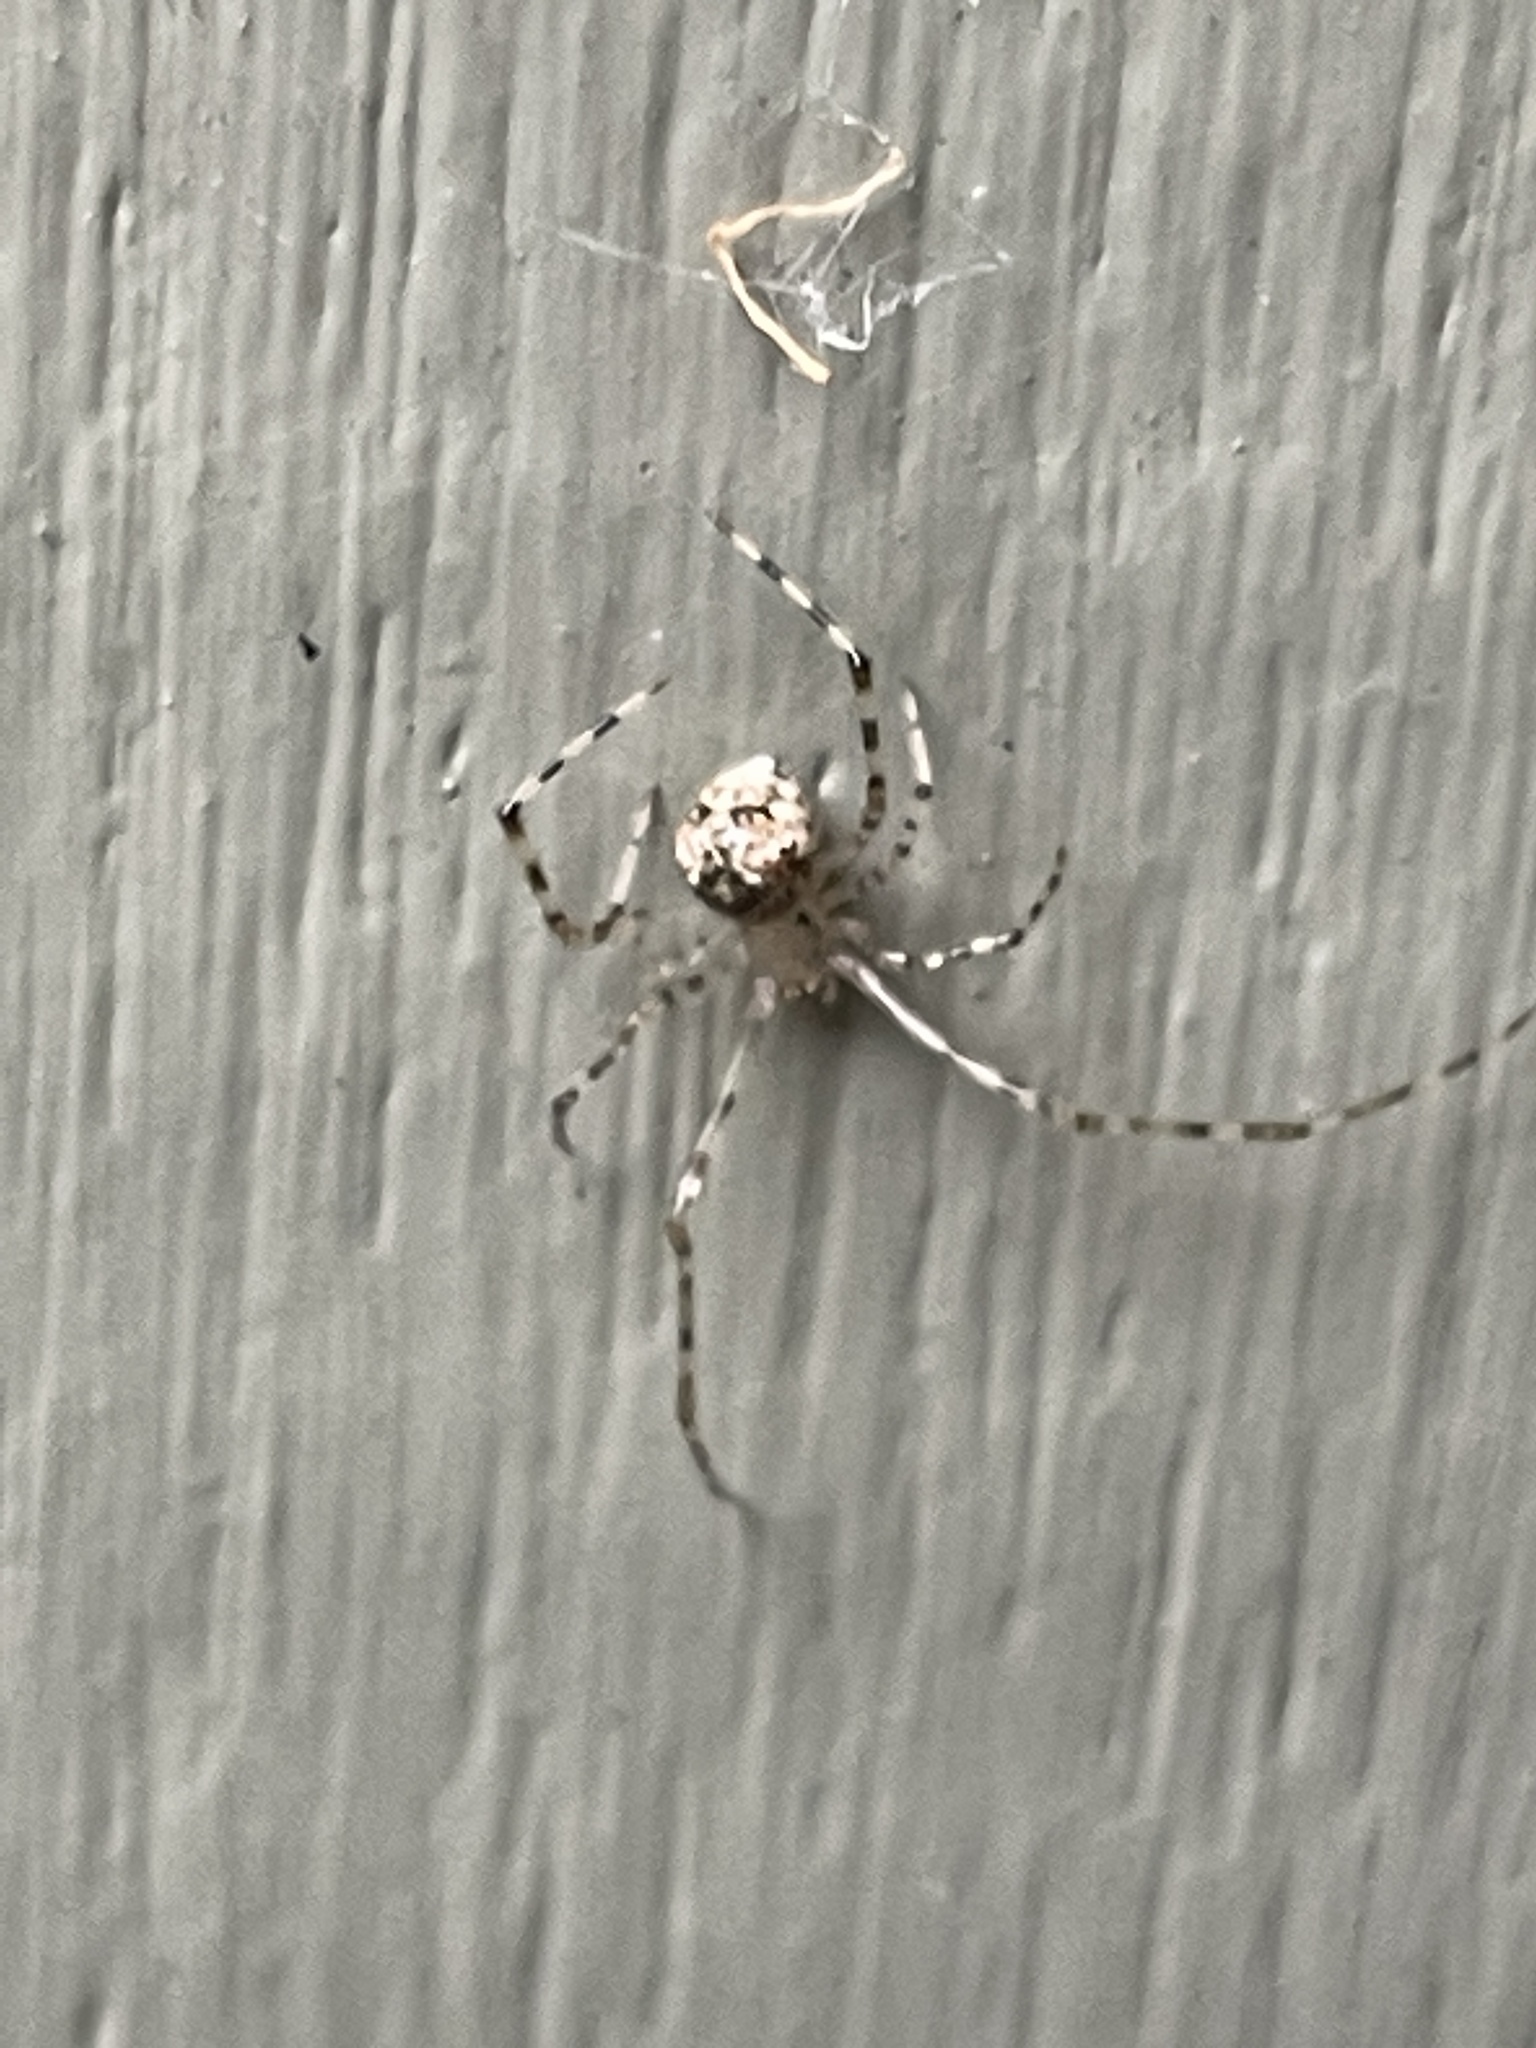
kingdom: Animalia
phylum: Arthropoda
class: Arachnida
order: Araneae
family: Theridiidae
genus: Cryptachaea
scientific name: Cryptachaea gigantipes
